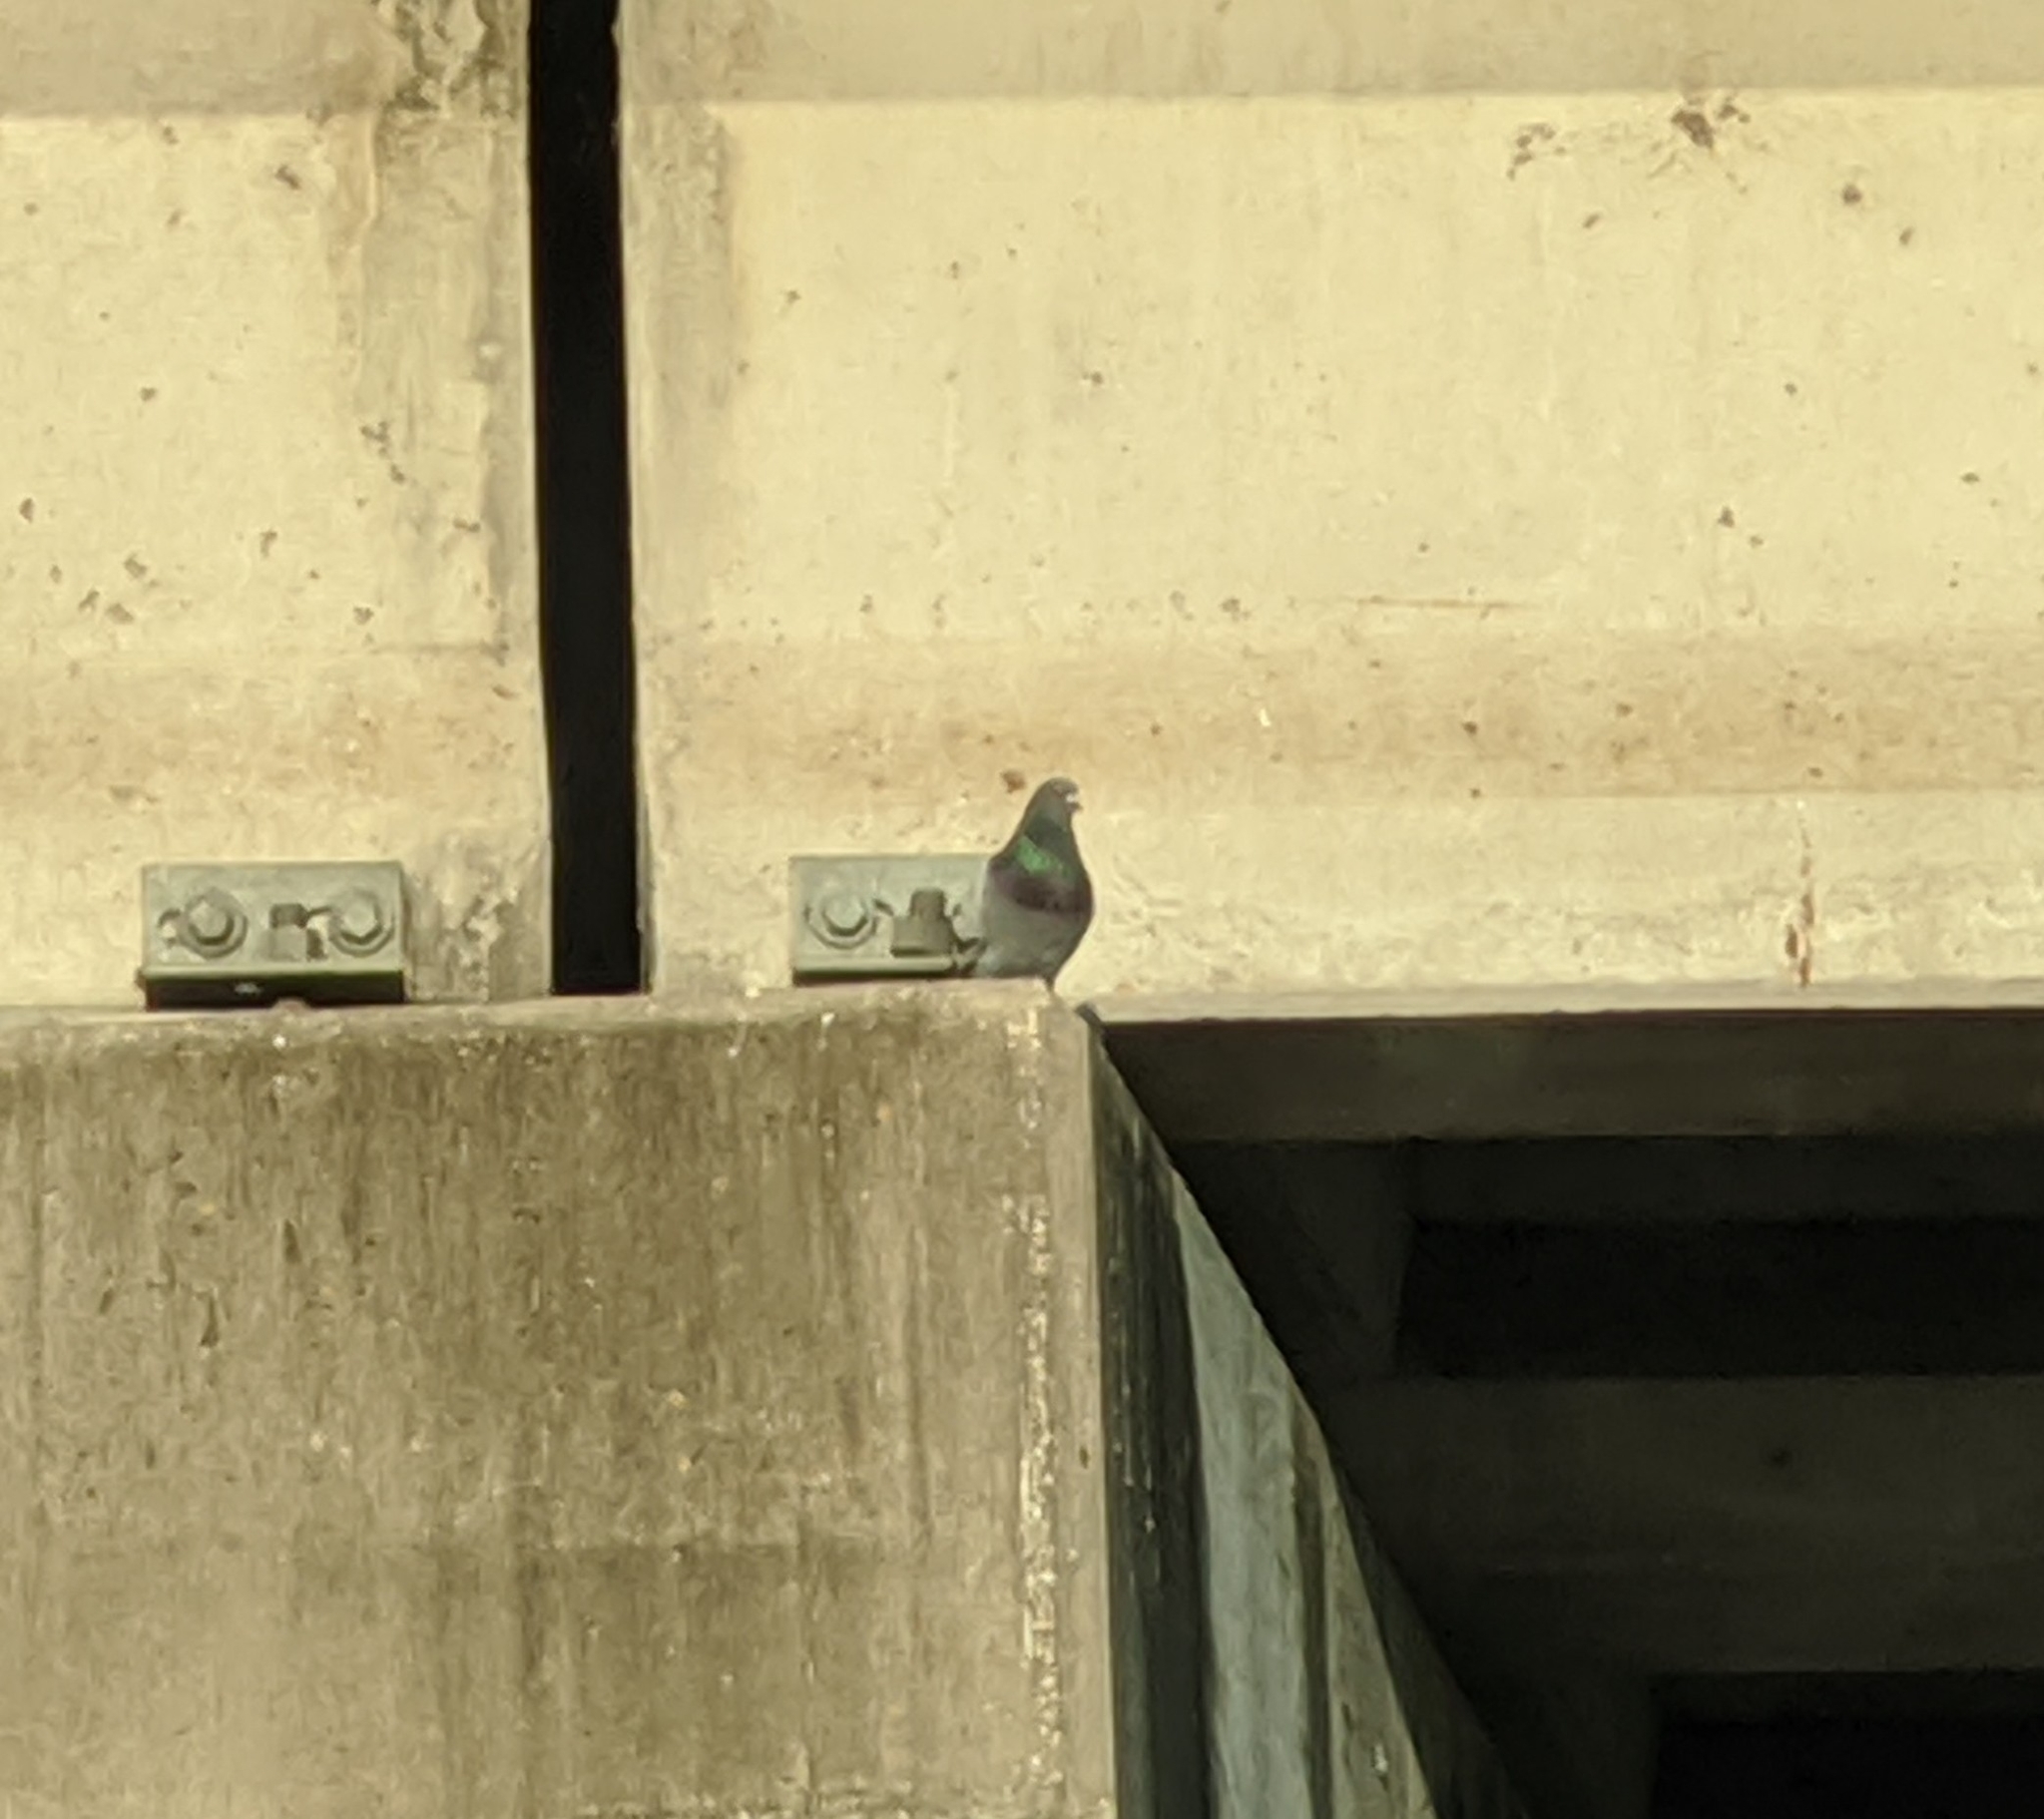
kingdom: Animalia
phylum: Chordata
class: Aves
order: Columbiformes
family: Columbidae
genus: Columba
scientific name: Columba livia
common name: Rock pigeon
